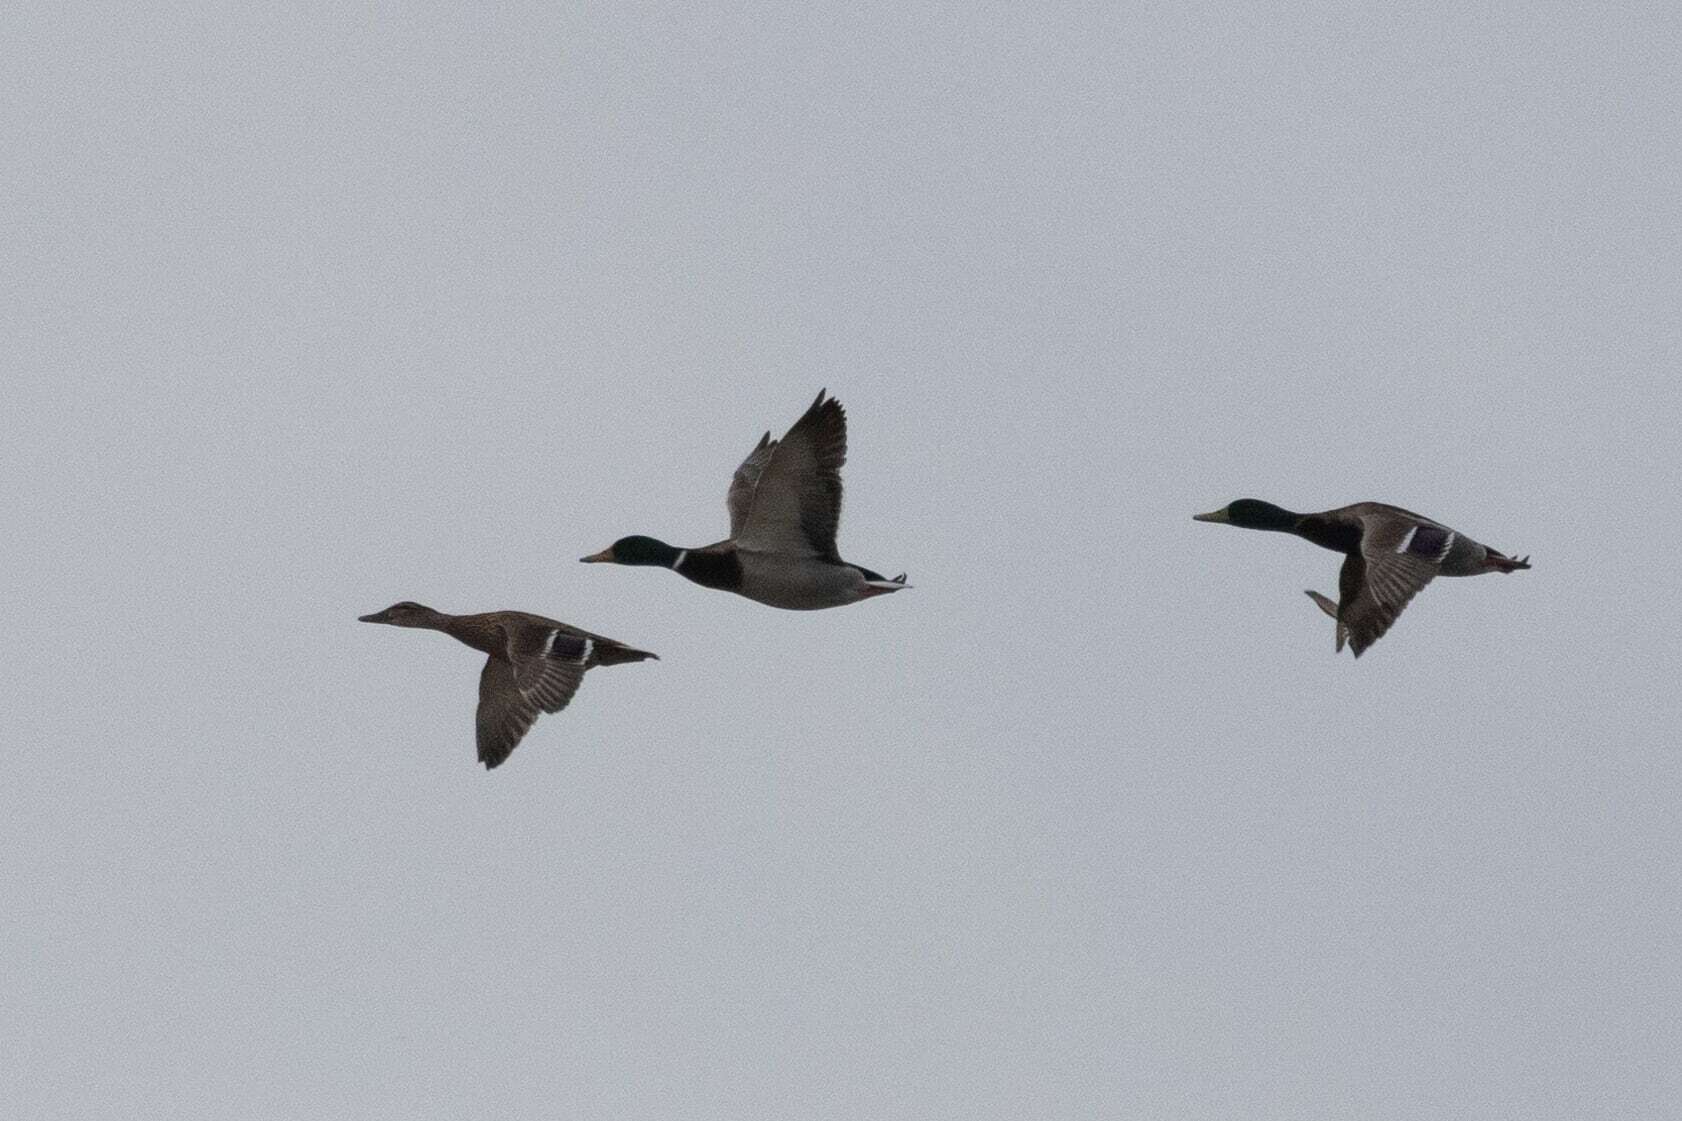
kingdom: Animalia
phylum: Chordata
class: Aves
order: Anseriformes
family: Anatidae
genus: Anas
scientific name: Anas platyrhynchos
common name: Mallard
